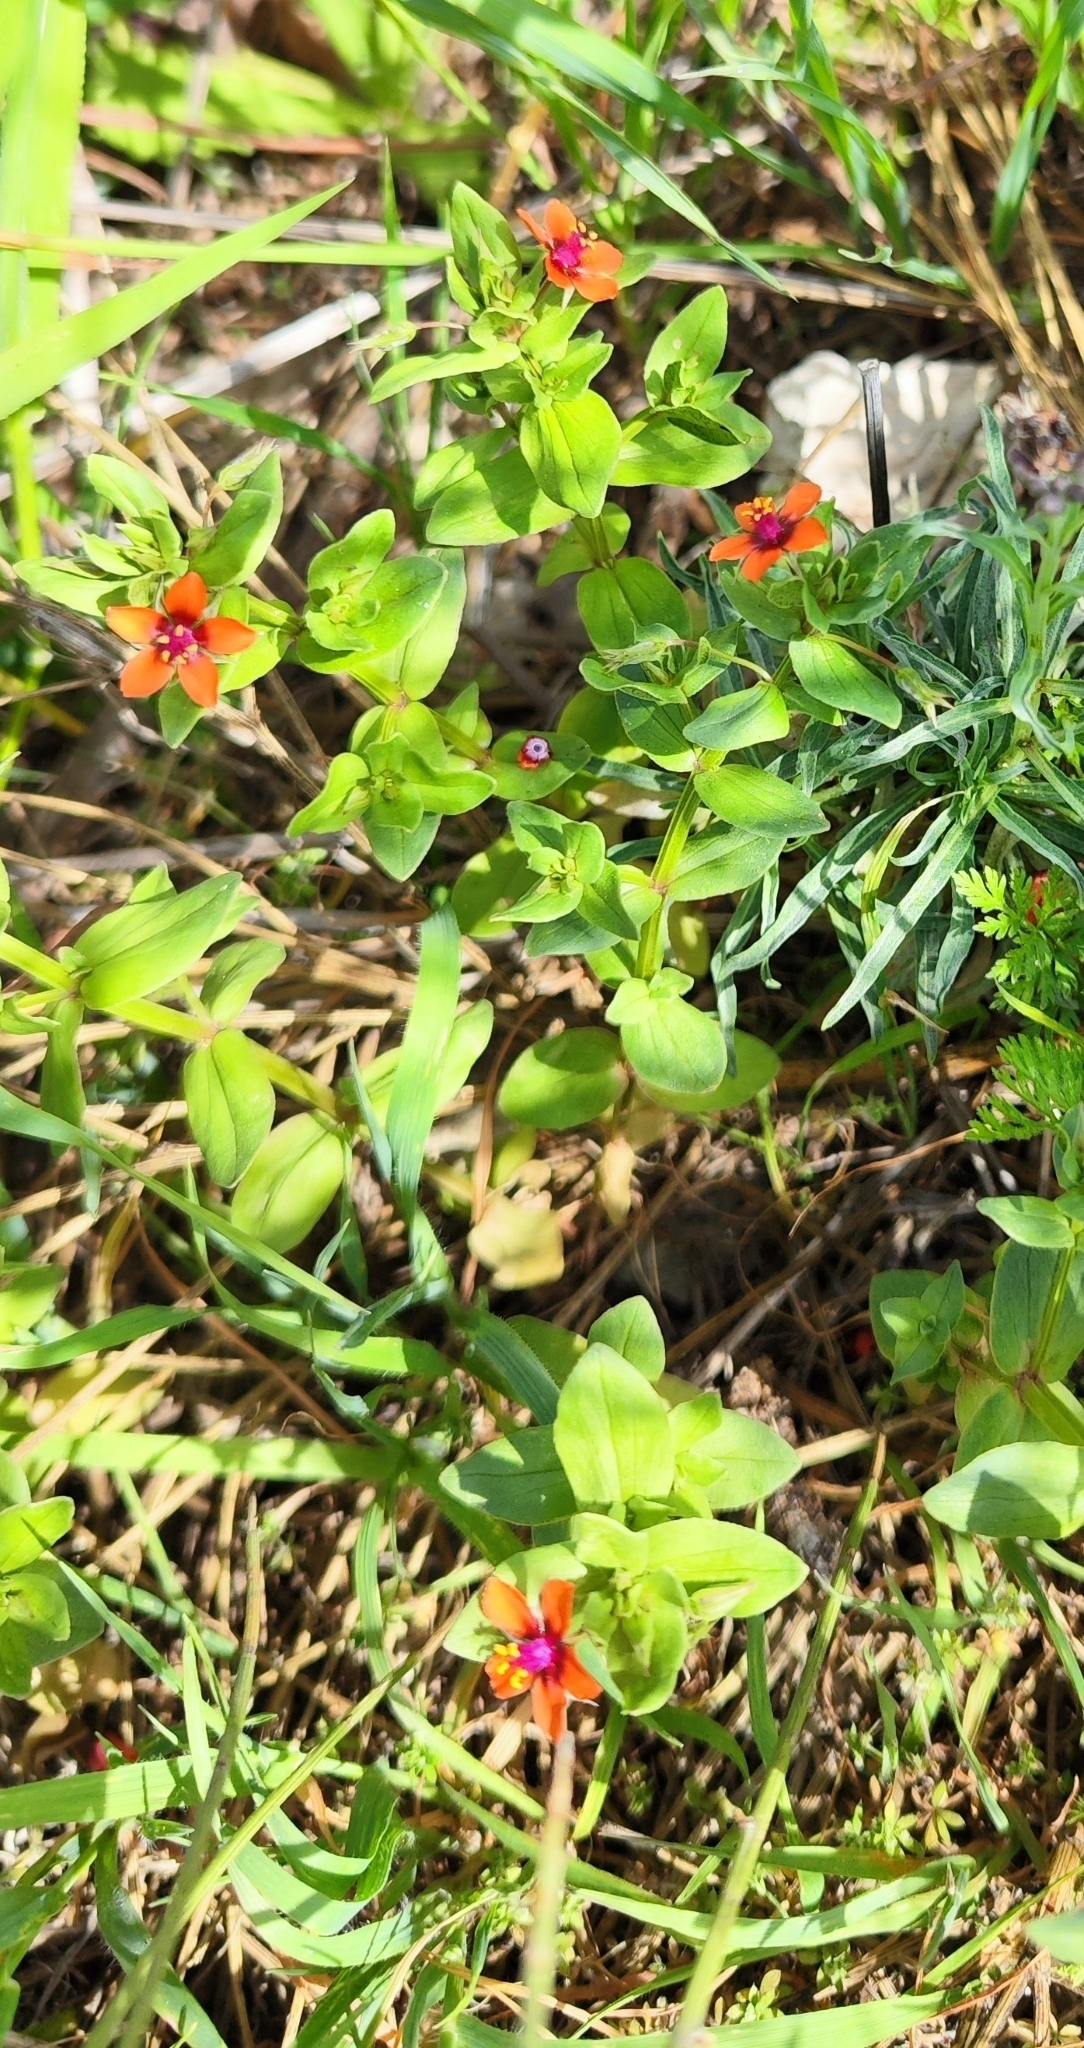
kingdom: Plantae
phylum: Tracheophyta
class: Magnoliopsida
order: Ericales
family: Primulaceae
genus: Lysimachia
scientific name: Lysimachia arvensis
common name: Scarlet pimpernel
